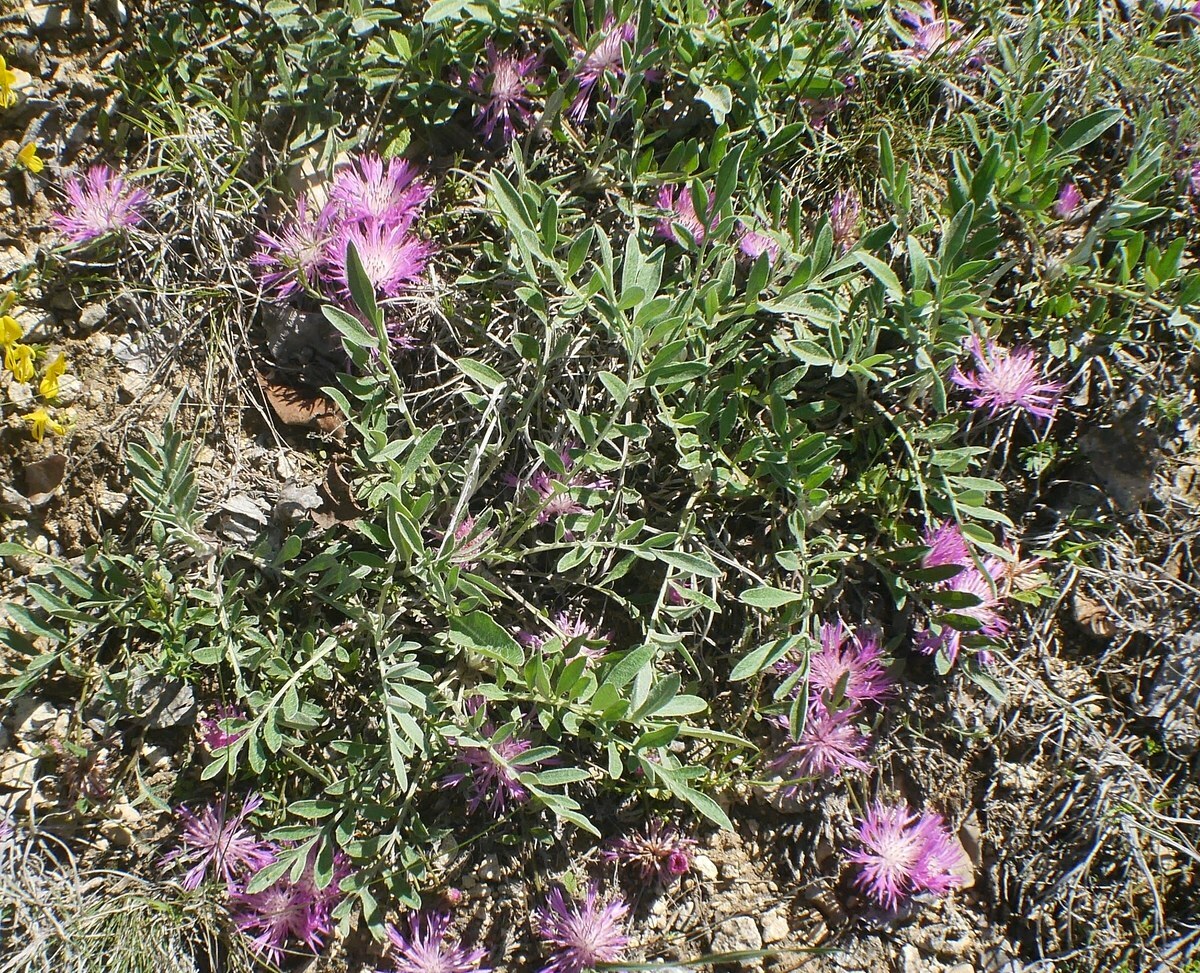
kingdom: Plantae
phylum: Tracheophyta
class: Magnoliopsida
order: Asterales
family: Asteraceae
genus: Psephellus
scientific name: Psephellus marschallianus
